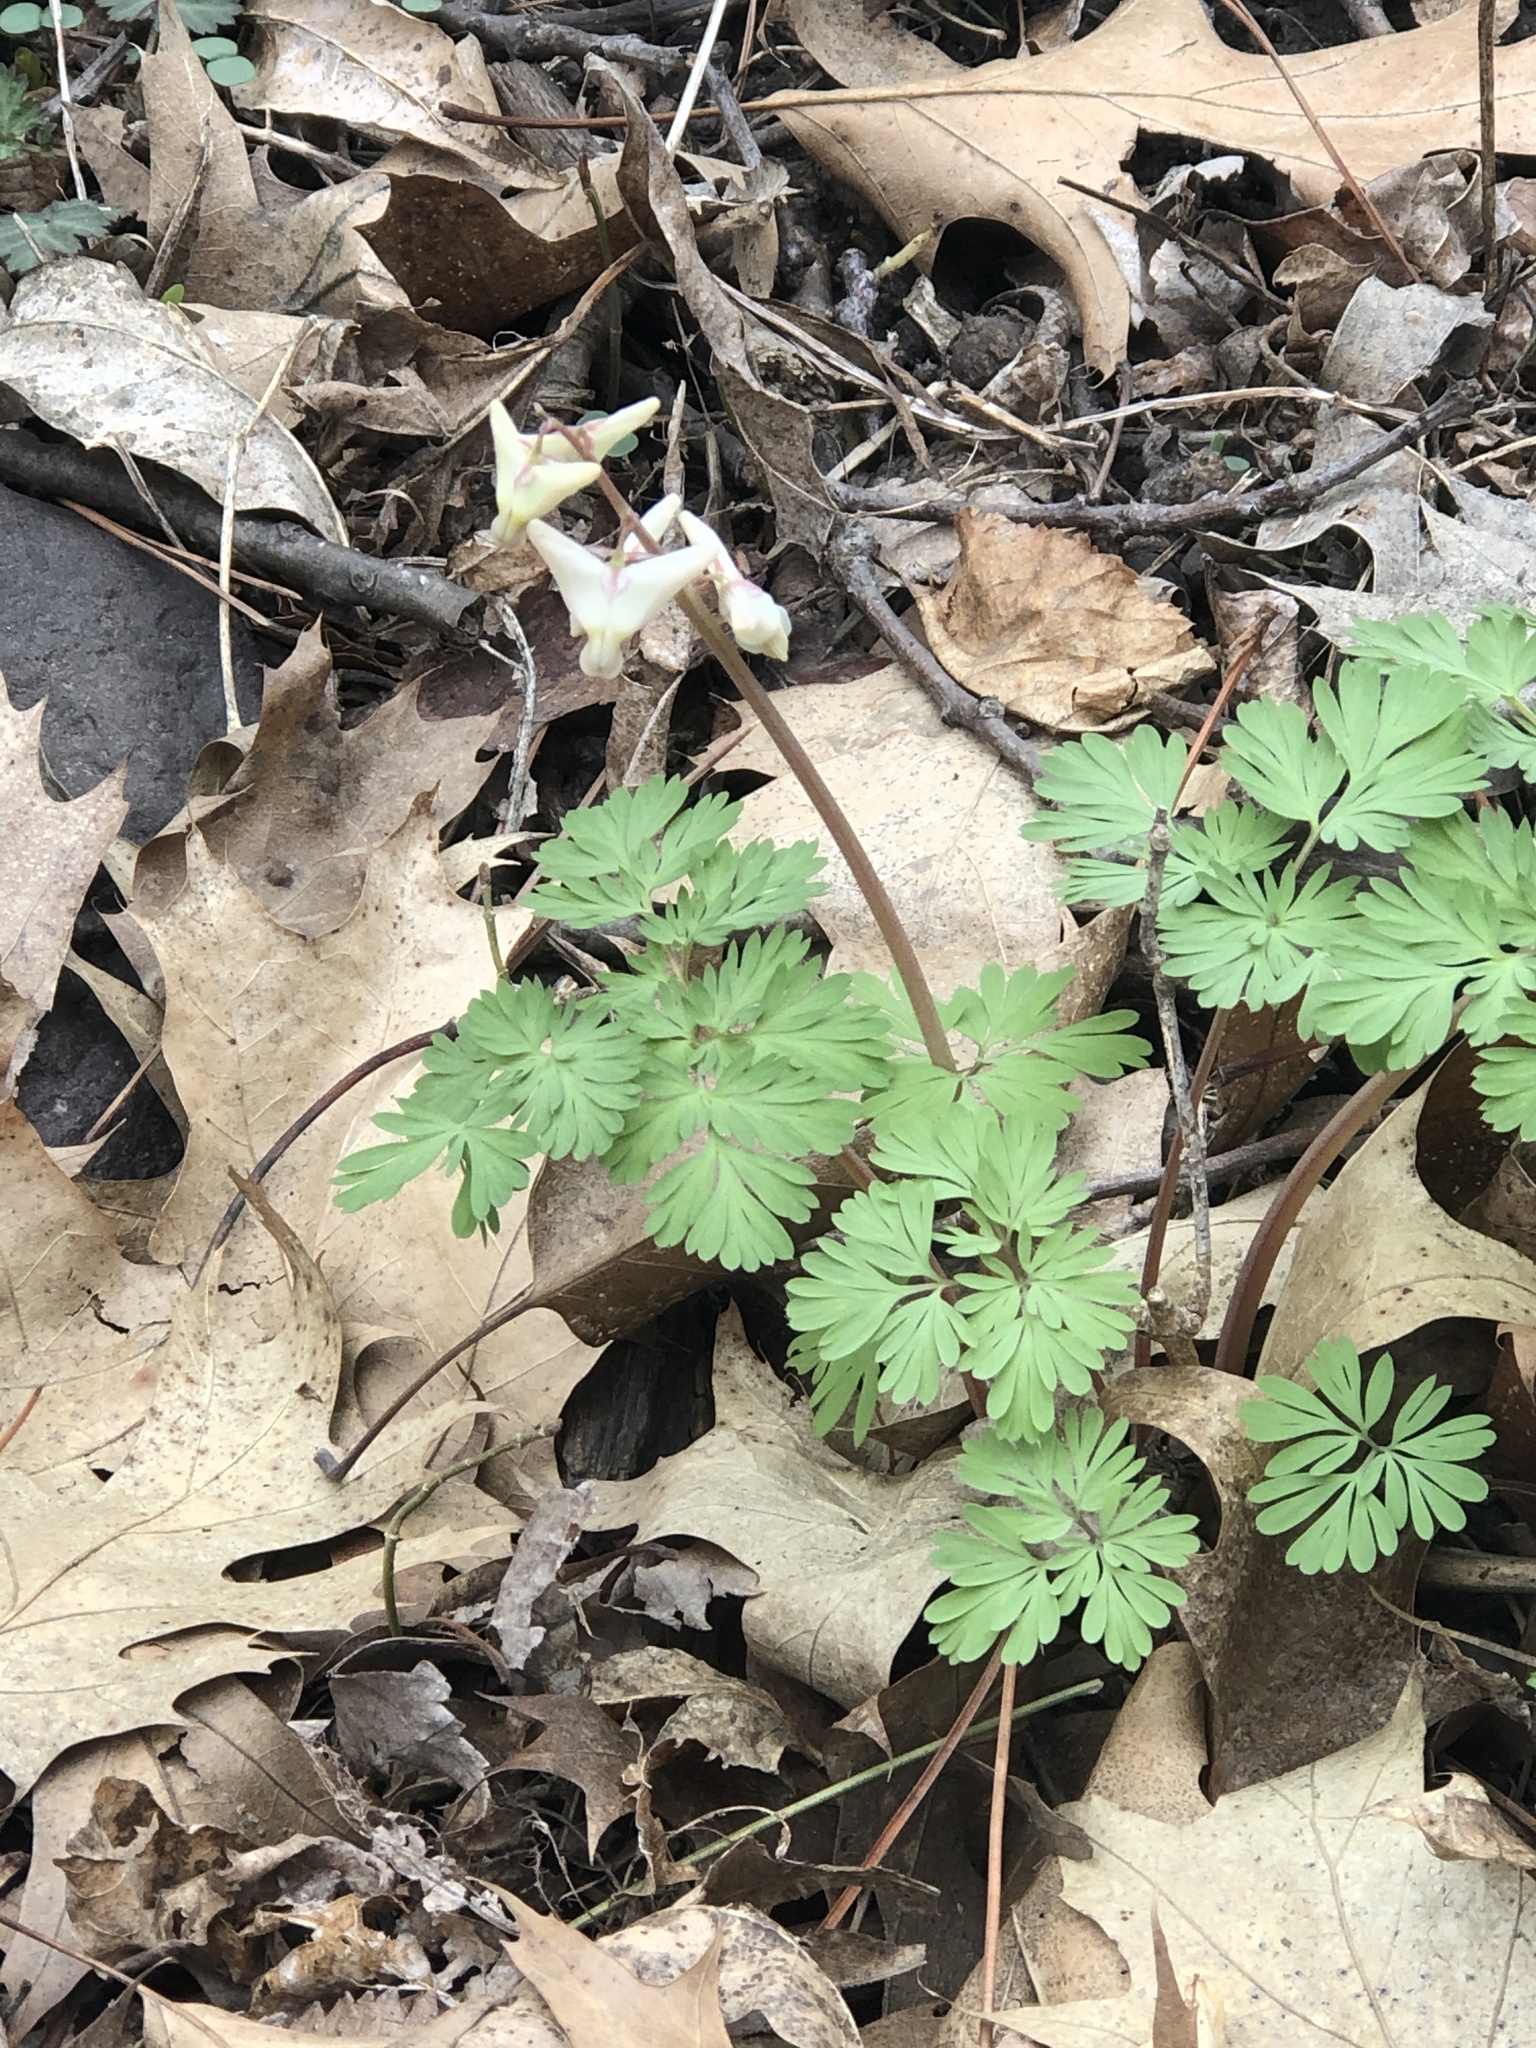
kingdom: Plantae
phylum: Tracheophyta
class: Magnoliopsida
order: Ranunculales
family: Papaveraceae
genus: Dicentra
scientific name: Dicentra cucullaria
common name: Dutchman's breeches
